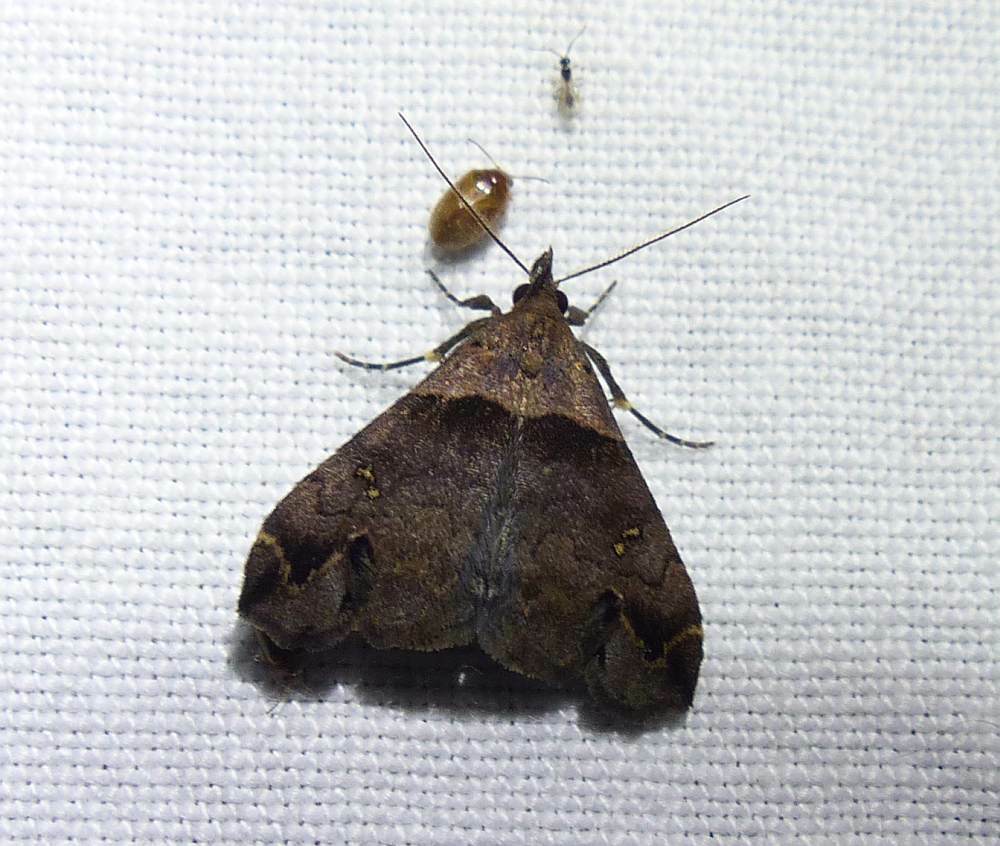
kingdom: Animalia
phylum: Arthropoda
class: Insecta
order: Lepidoptera
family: Erebidae
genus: Lascoria
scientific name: Lascoria ambigualis
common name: Ambiguous moth
